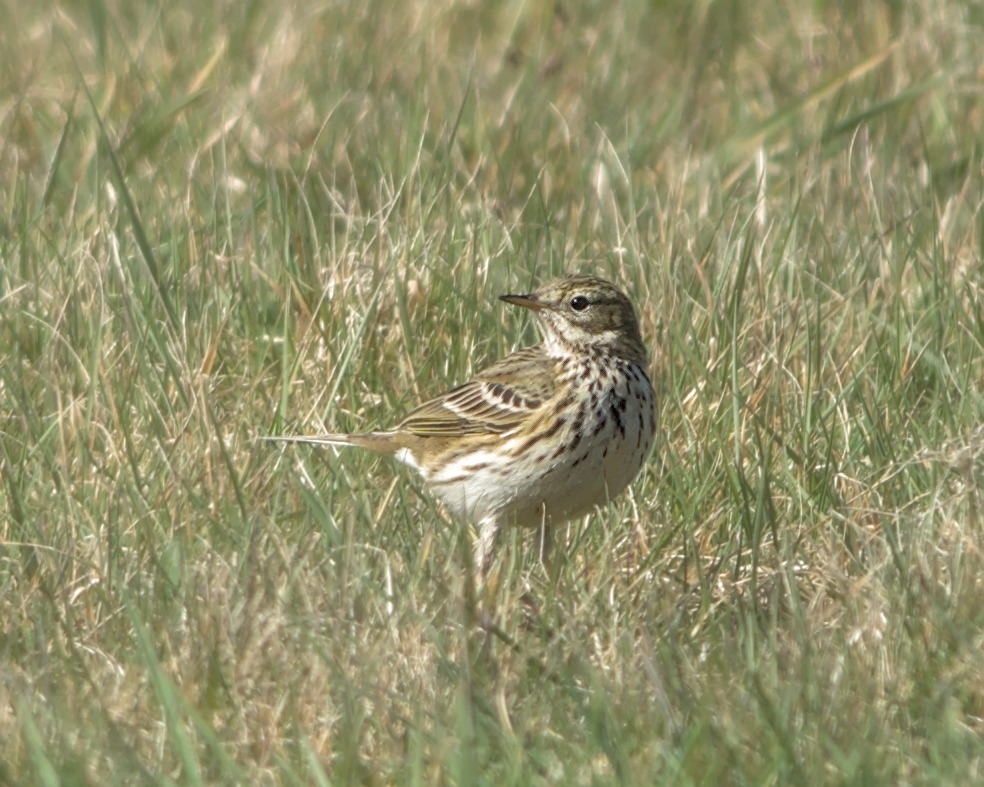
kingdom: Animalia
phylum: Chordata
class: Aves
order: Passeriformes
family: Motacillidae
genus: Anthus
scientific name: Anthus pratensis
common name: Meadow pipit
